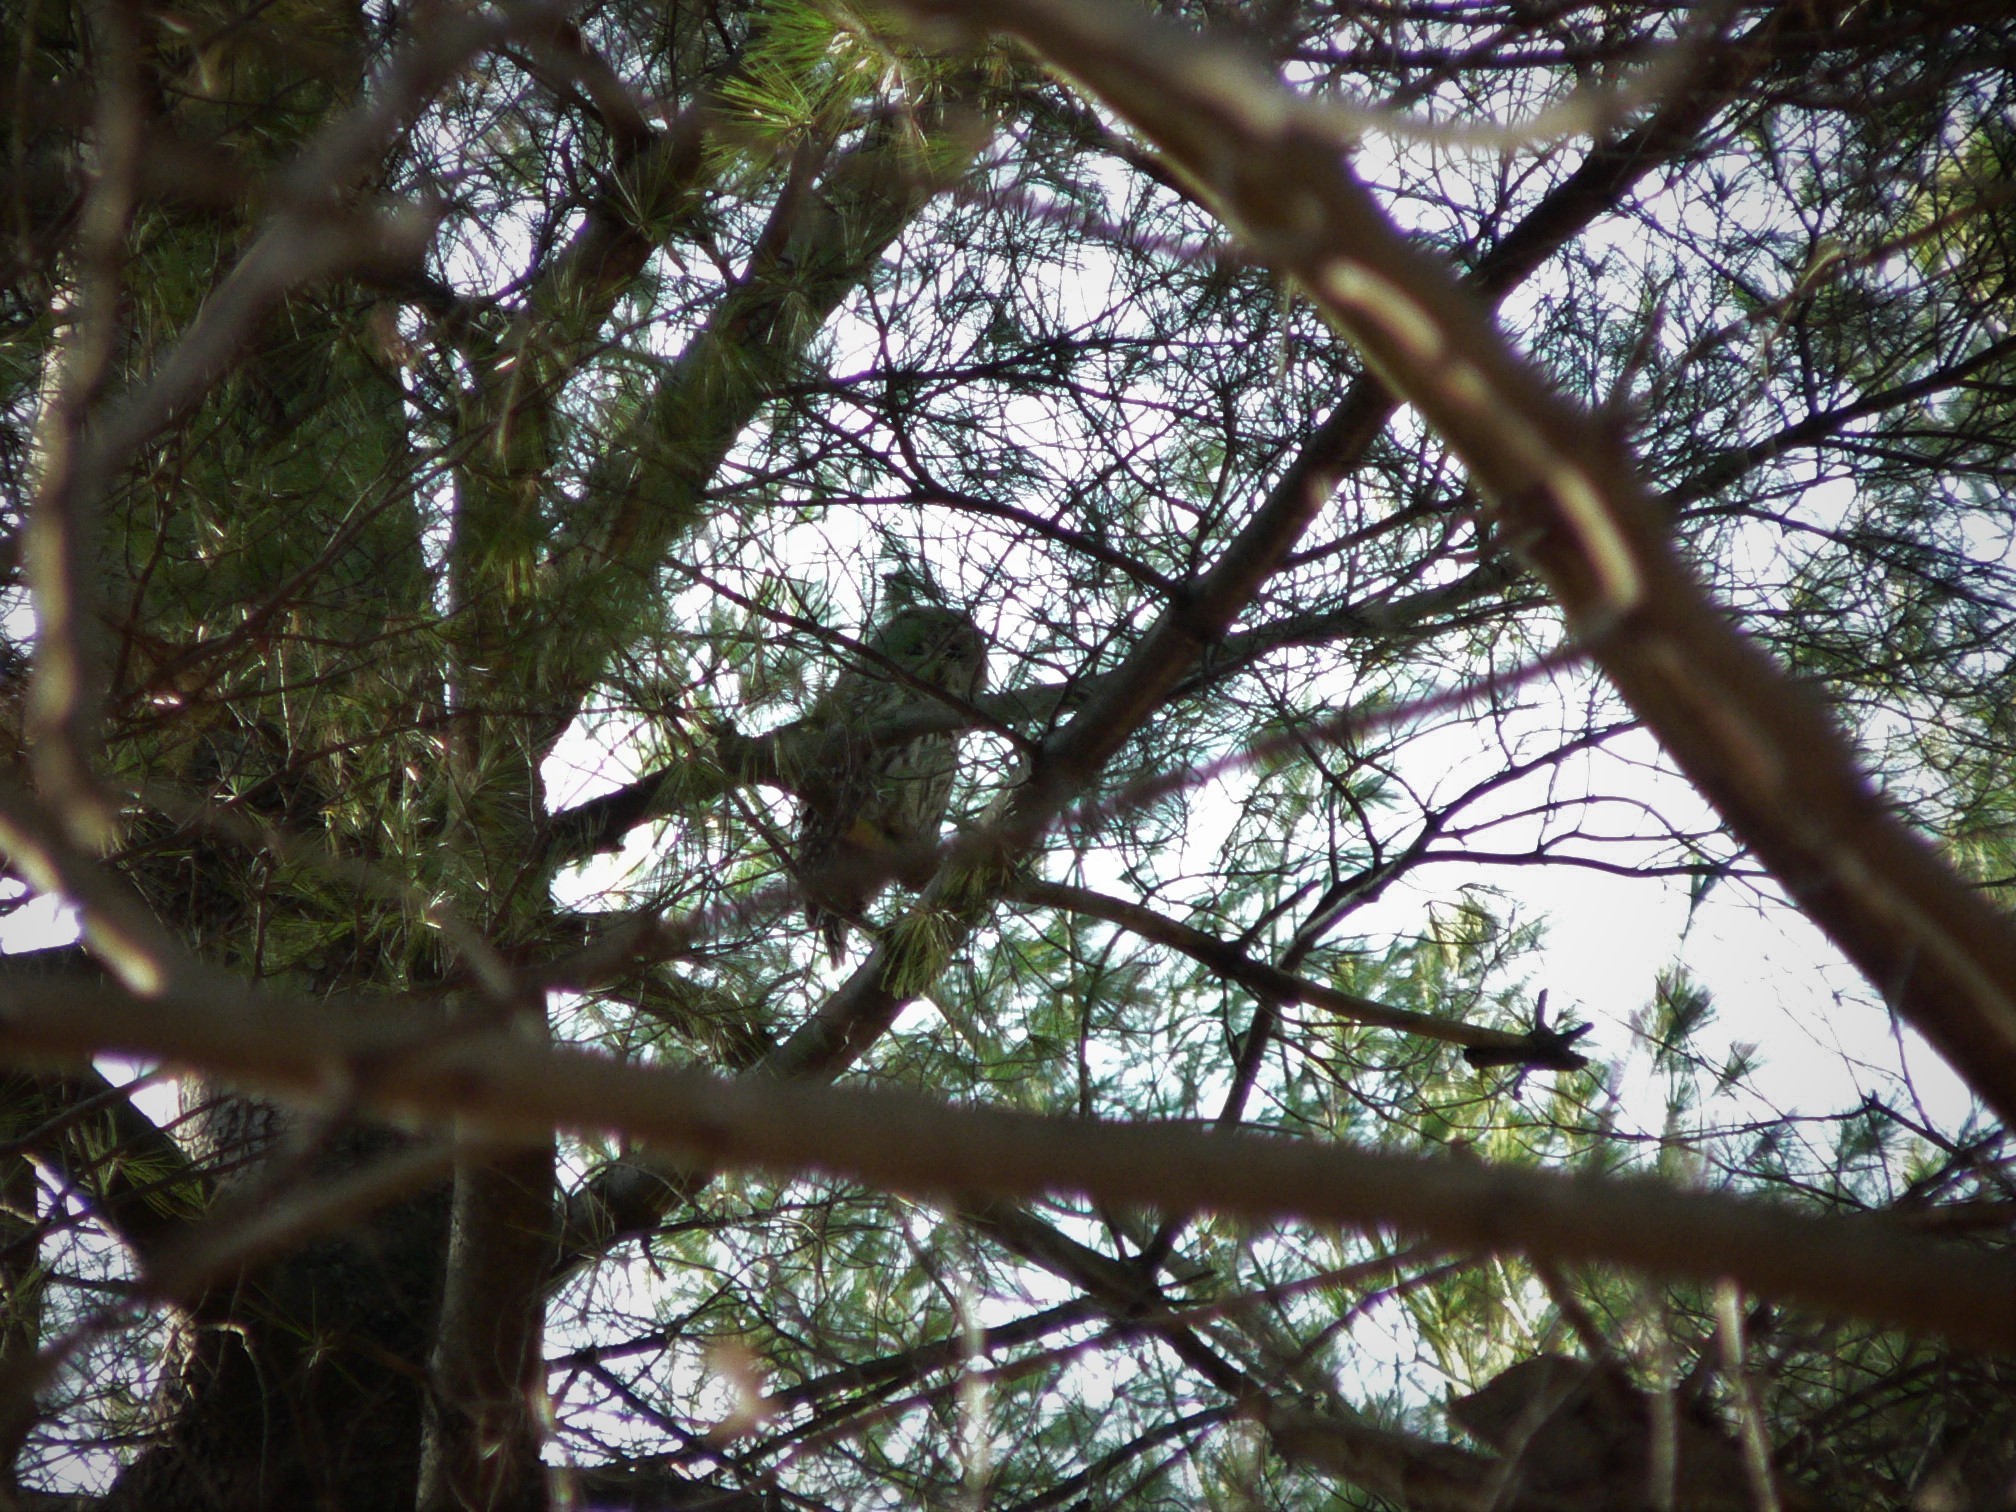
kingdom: Animalia
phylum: Chordata
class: Aves
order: Strigiformes
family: Strigidae
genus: Strix
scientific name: Strix varia
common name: Barred owl
